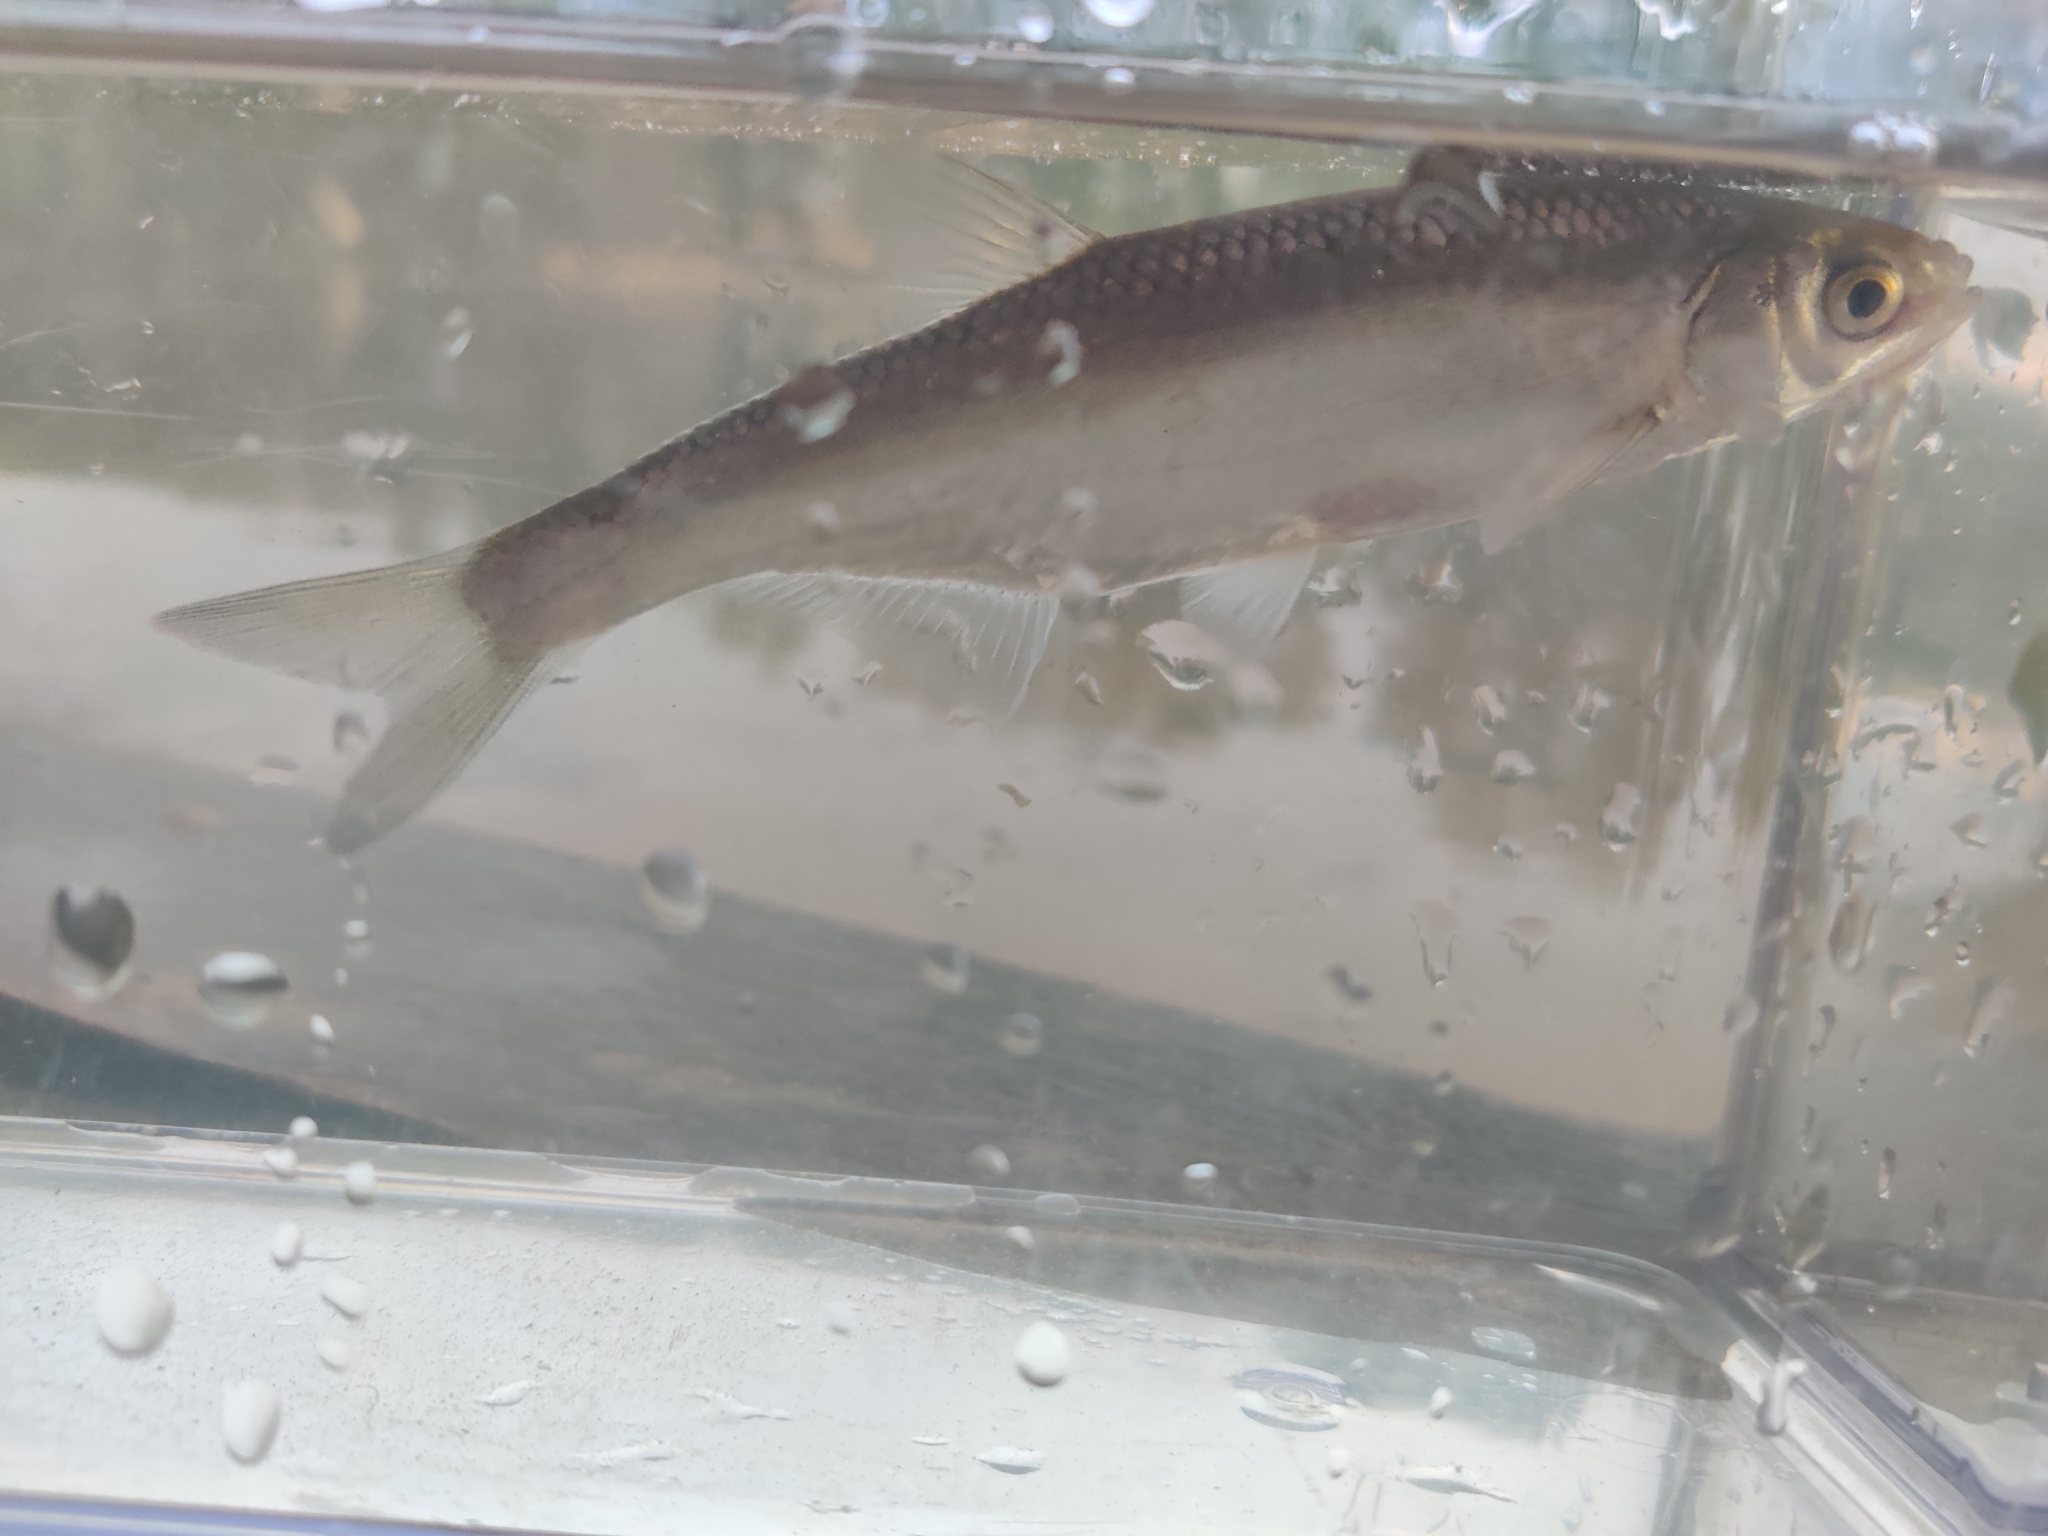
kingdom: Animalia
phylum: Chordata
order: Cypriniformes
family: Cyprinidae
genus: Alburnus
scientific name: Alburnus alburnus
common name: Bleak
